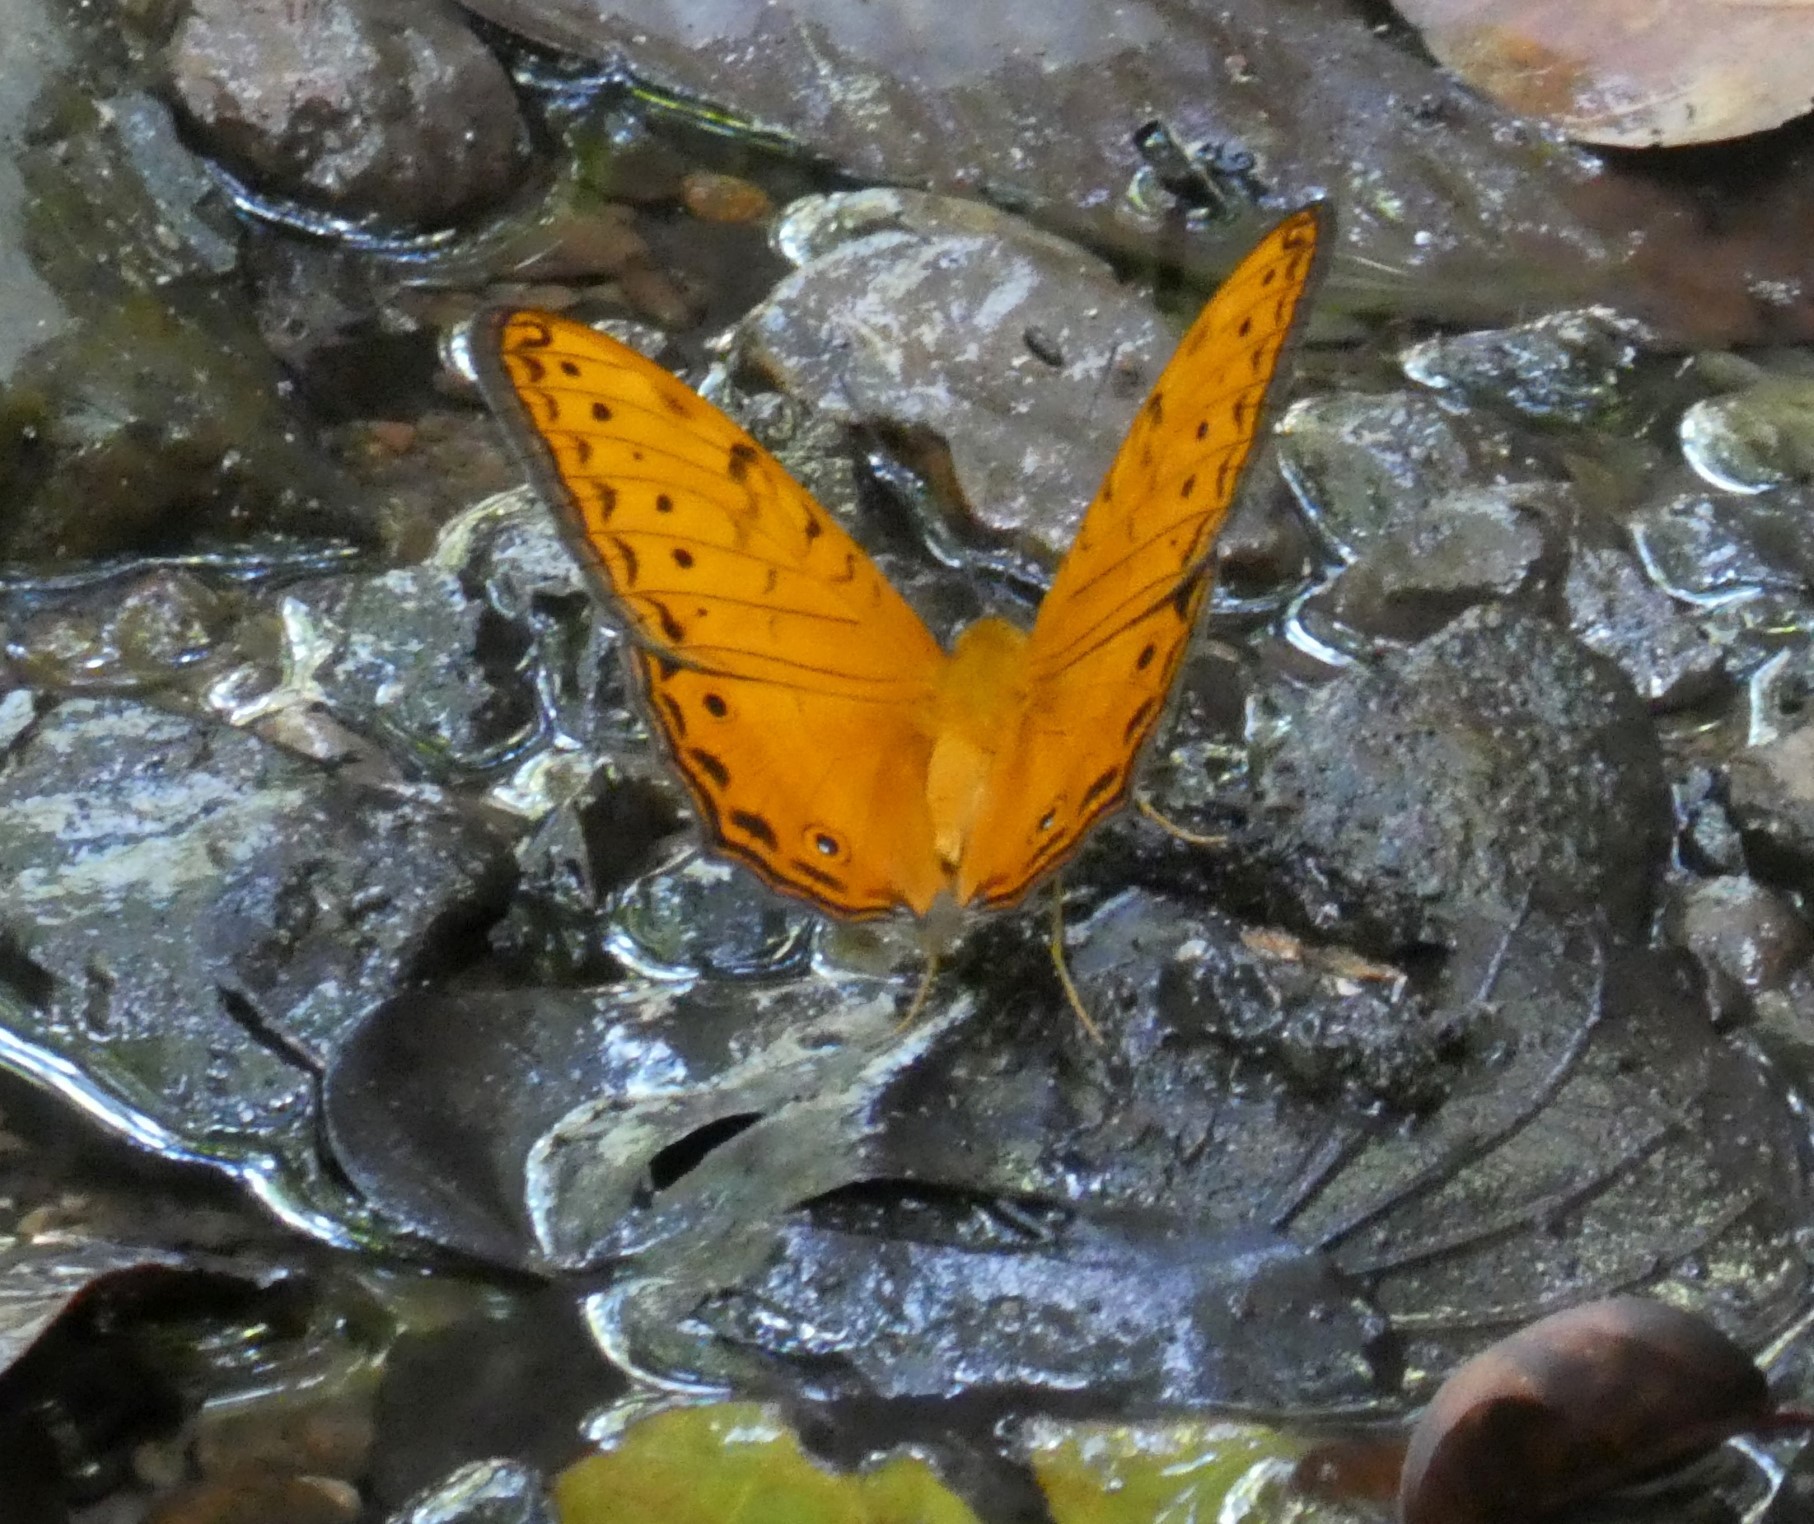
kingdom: Animalia
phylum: Arthropoda
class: Insecta
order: Lepidoptera
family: Nymphalidae
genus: Vindula
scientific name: Vindula arsinoe
